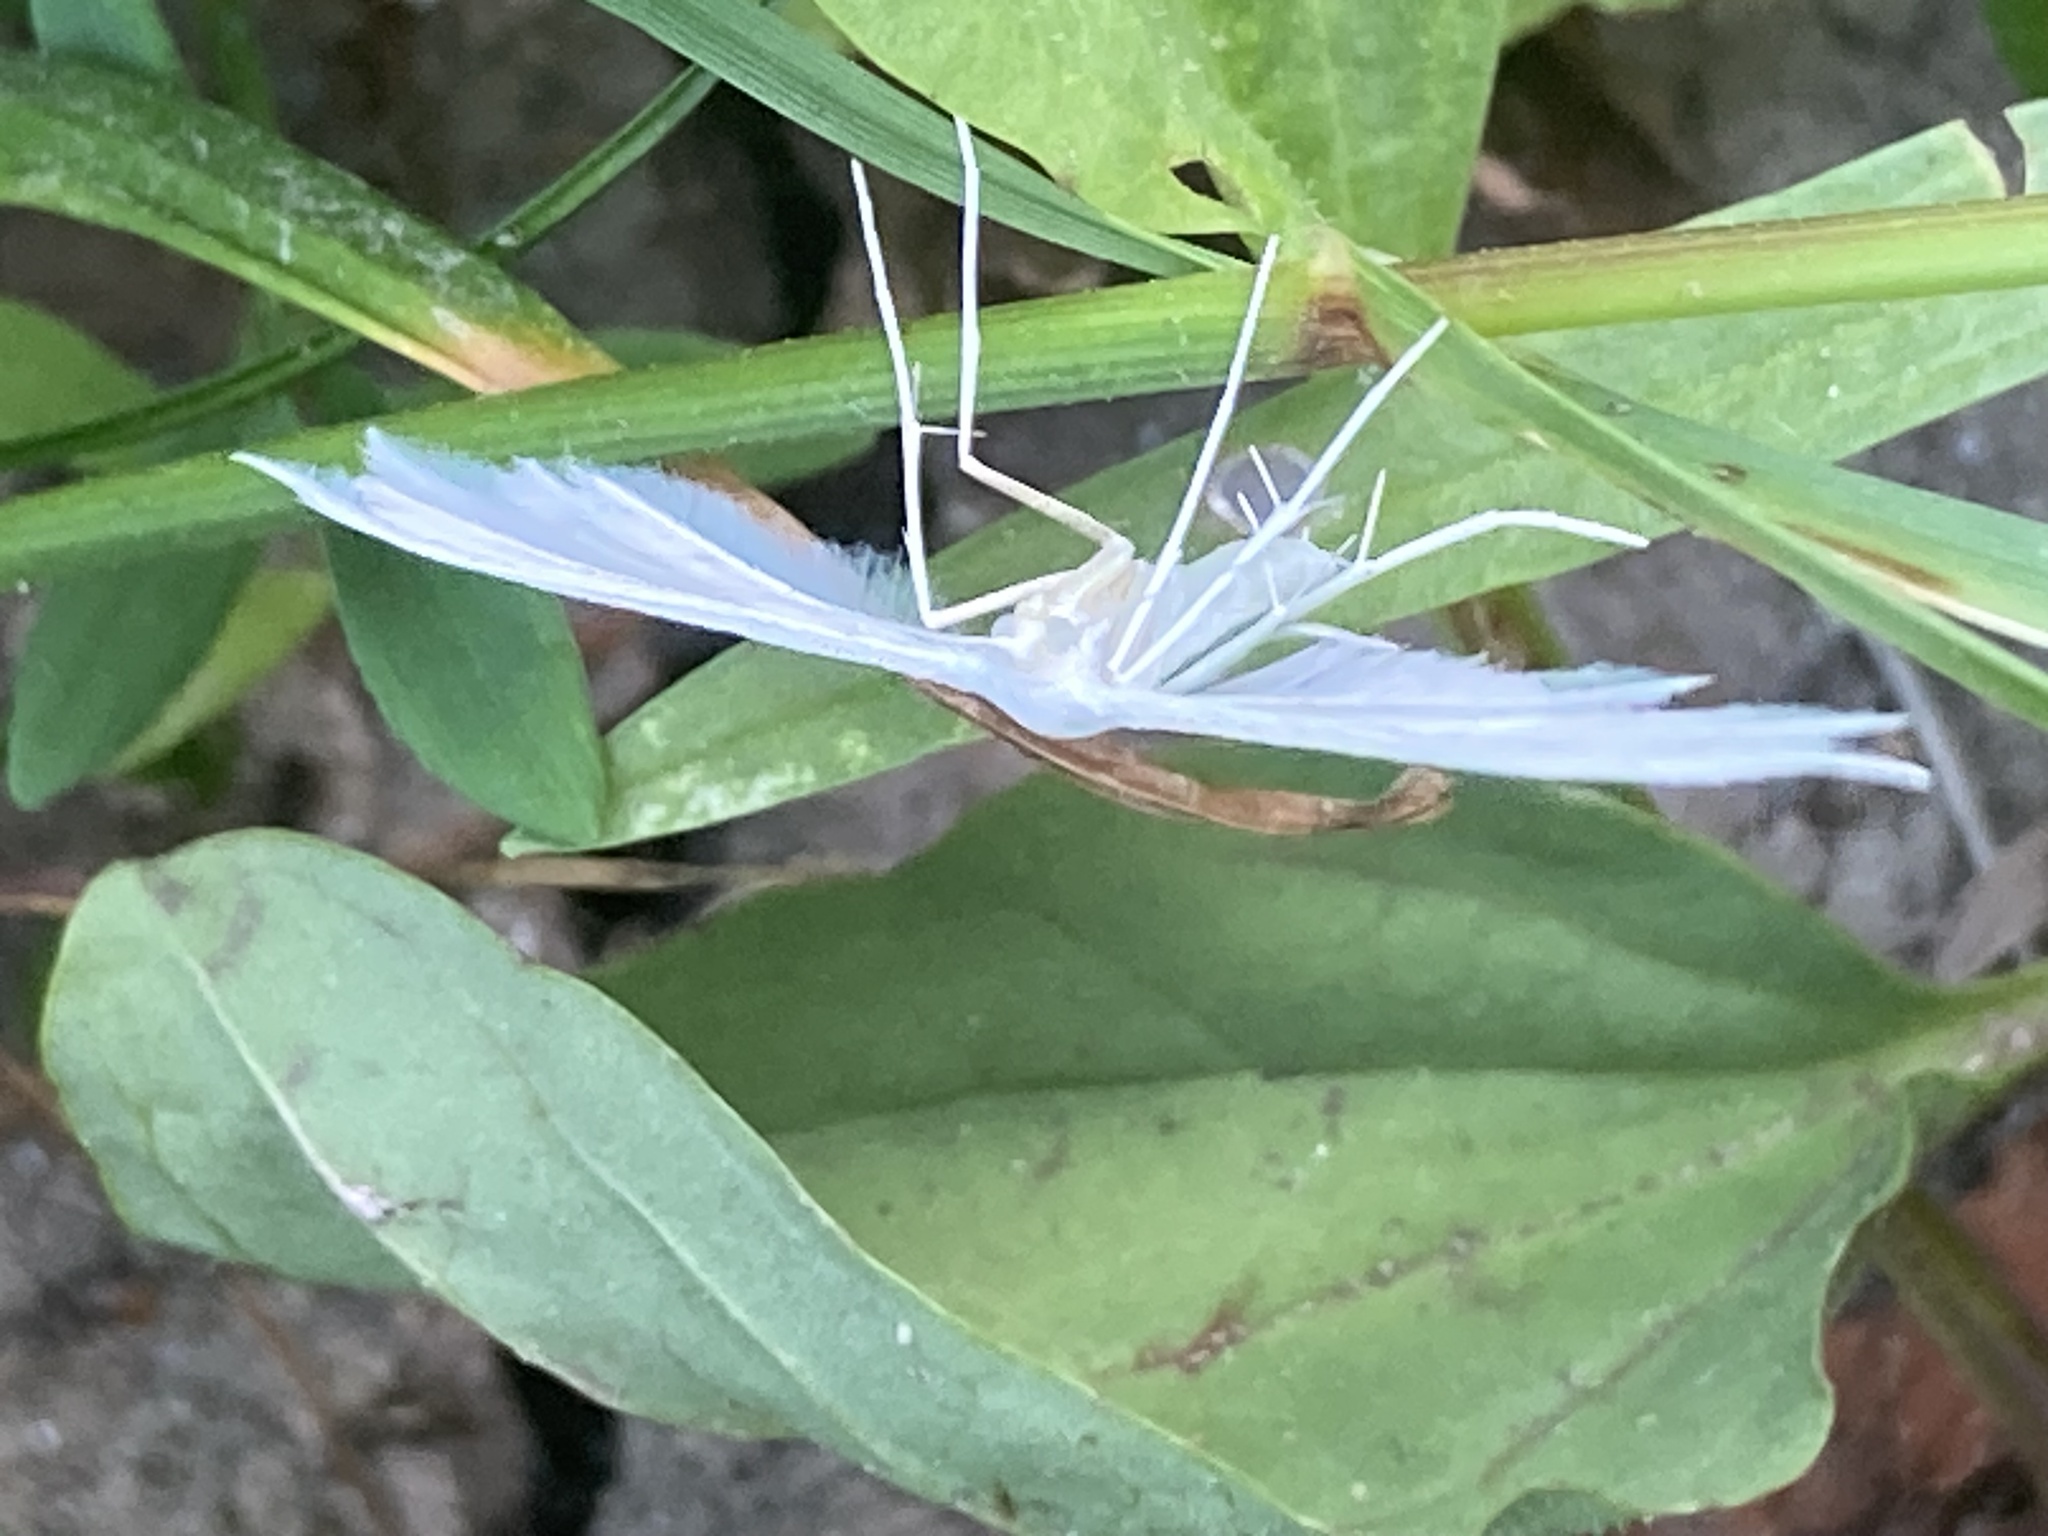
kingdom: Animalia
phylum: Arthropoda
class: Insecta
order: Lepidoptera
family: Pterophoridae
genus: Pterophorus
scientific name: Pterophorus pentadactyla
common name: White plume moth
